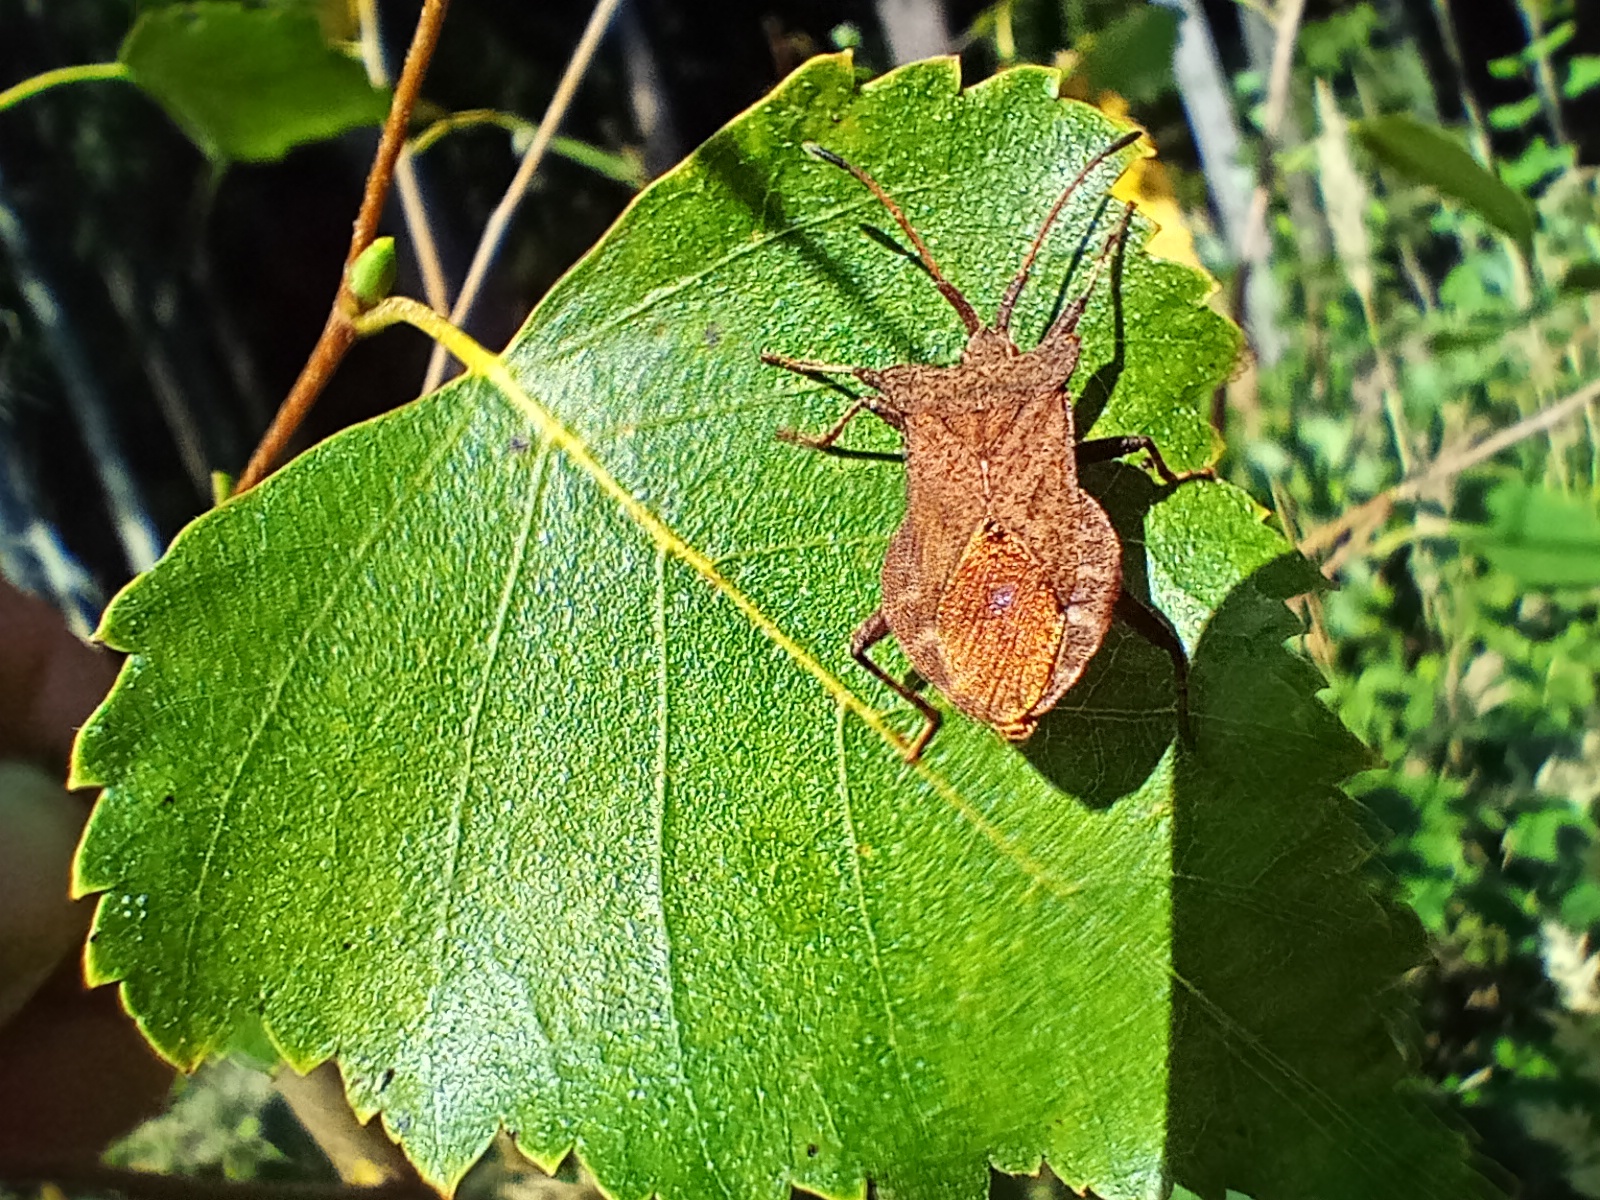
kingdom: Animalia
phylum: Arthropoda
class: Insecta
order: Hemiptera
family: Coreidae
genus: Coreus
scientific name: Coreus marginatus
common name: Dock bug
